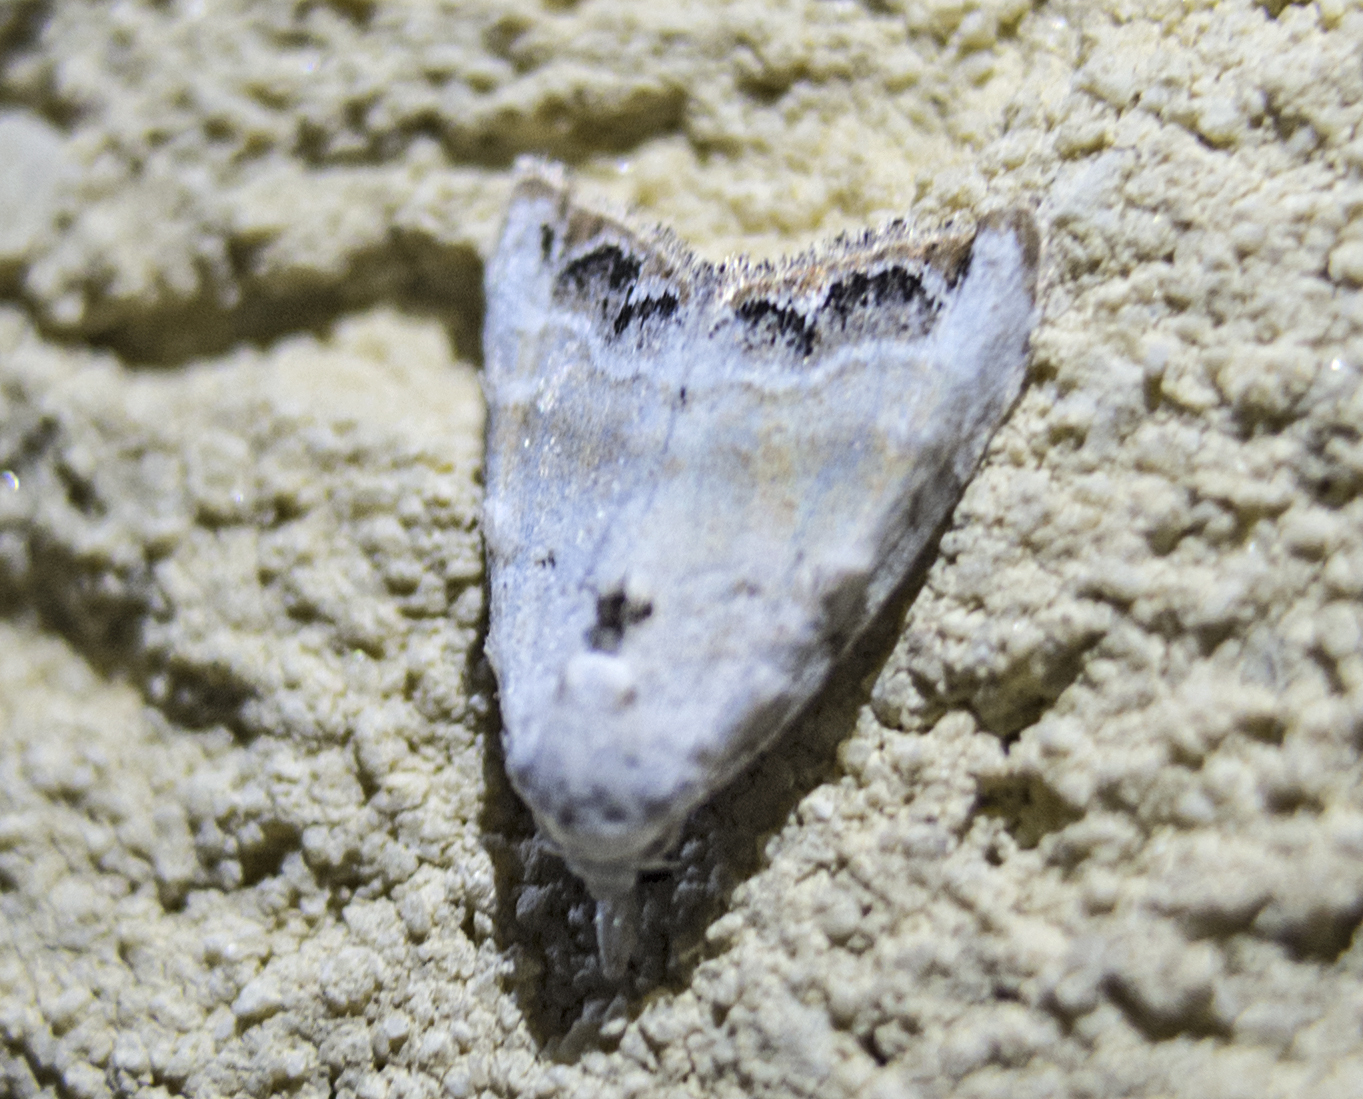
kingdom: Animalia
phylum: Arthropoda
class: Insecta
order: Lepidoptera
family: Nolidae
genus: Nola
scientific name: Nola chlamitulalis
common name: Jersey black arches
